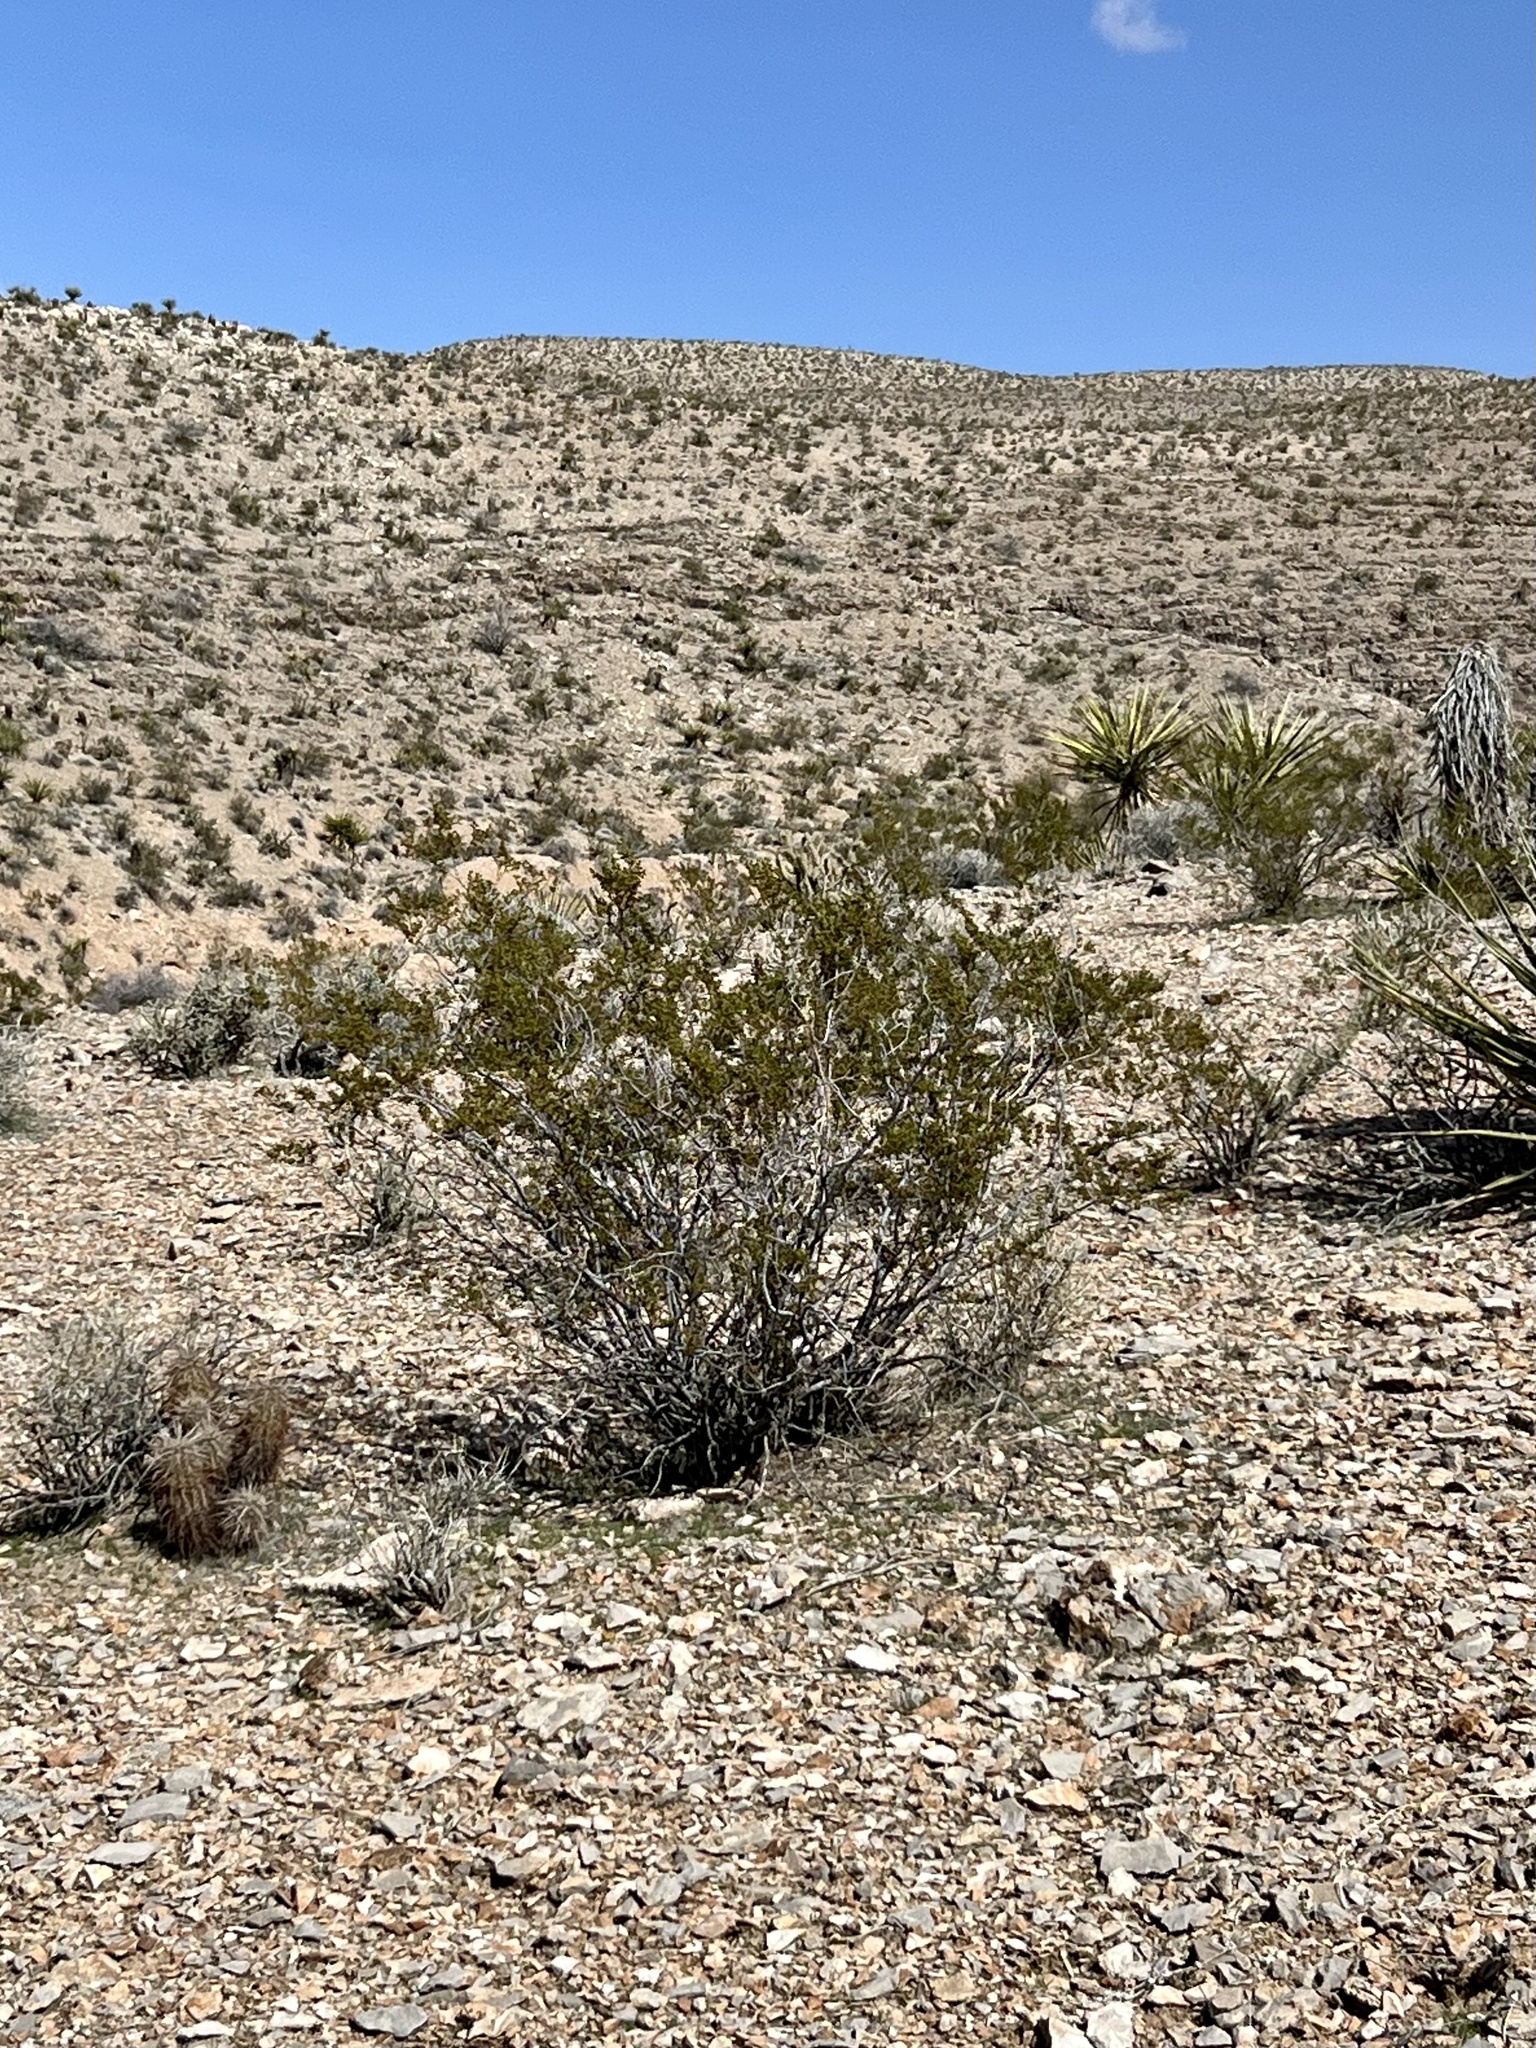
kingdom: Plantae
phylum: Tracheophyta
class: Magnoliopsida
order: Zygophyllales
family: Zygophyllaceae
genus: Larrea
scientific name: Larrea tridentata
